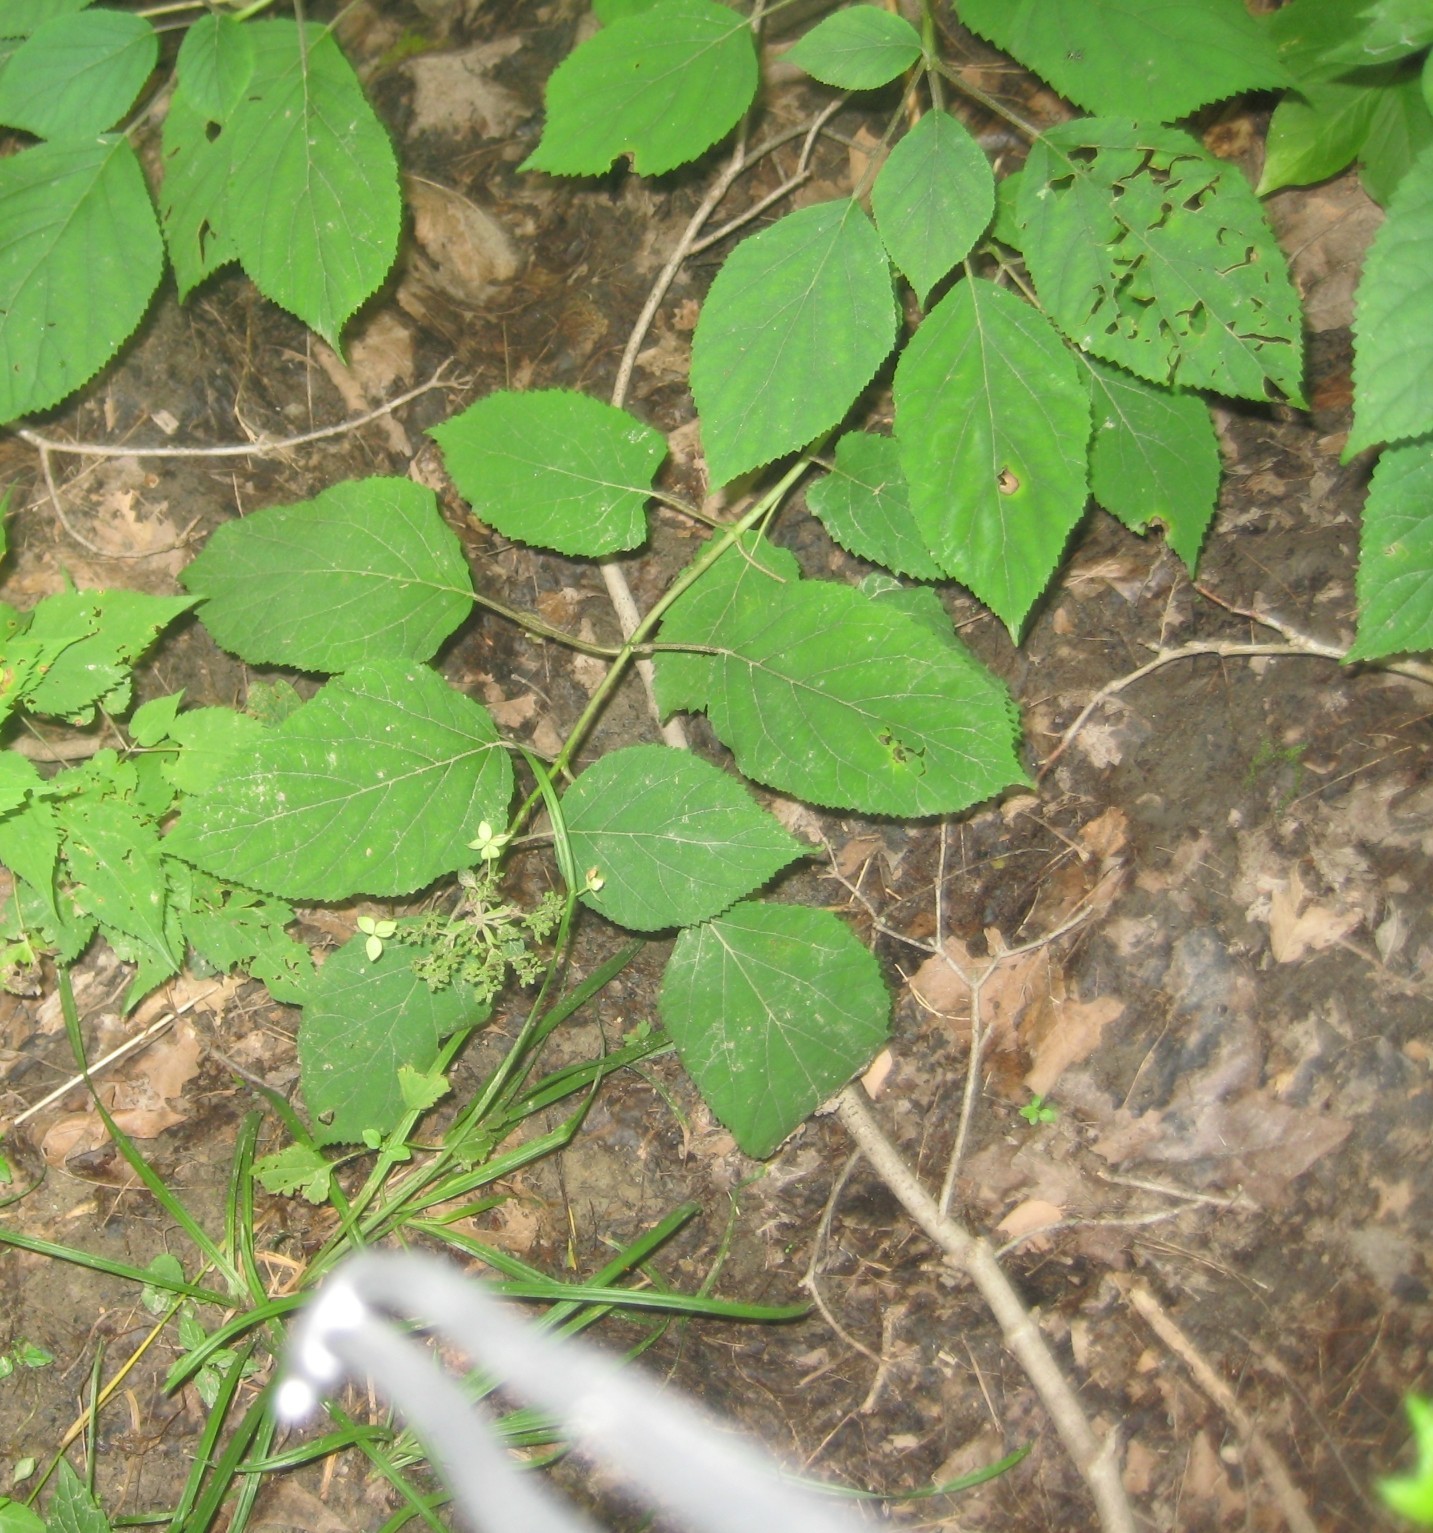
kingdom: Plantae
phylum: Tracheophyta
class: Magnoliopsida
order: Cornales
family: Hydrangeaceae
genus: Hydrangea
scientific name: Hydrangea arborescens
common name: Sevenbark
